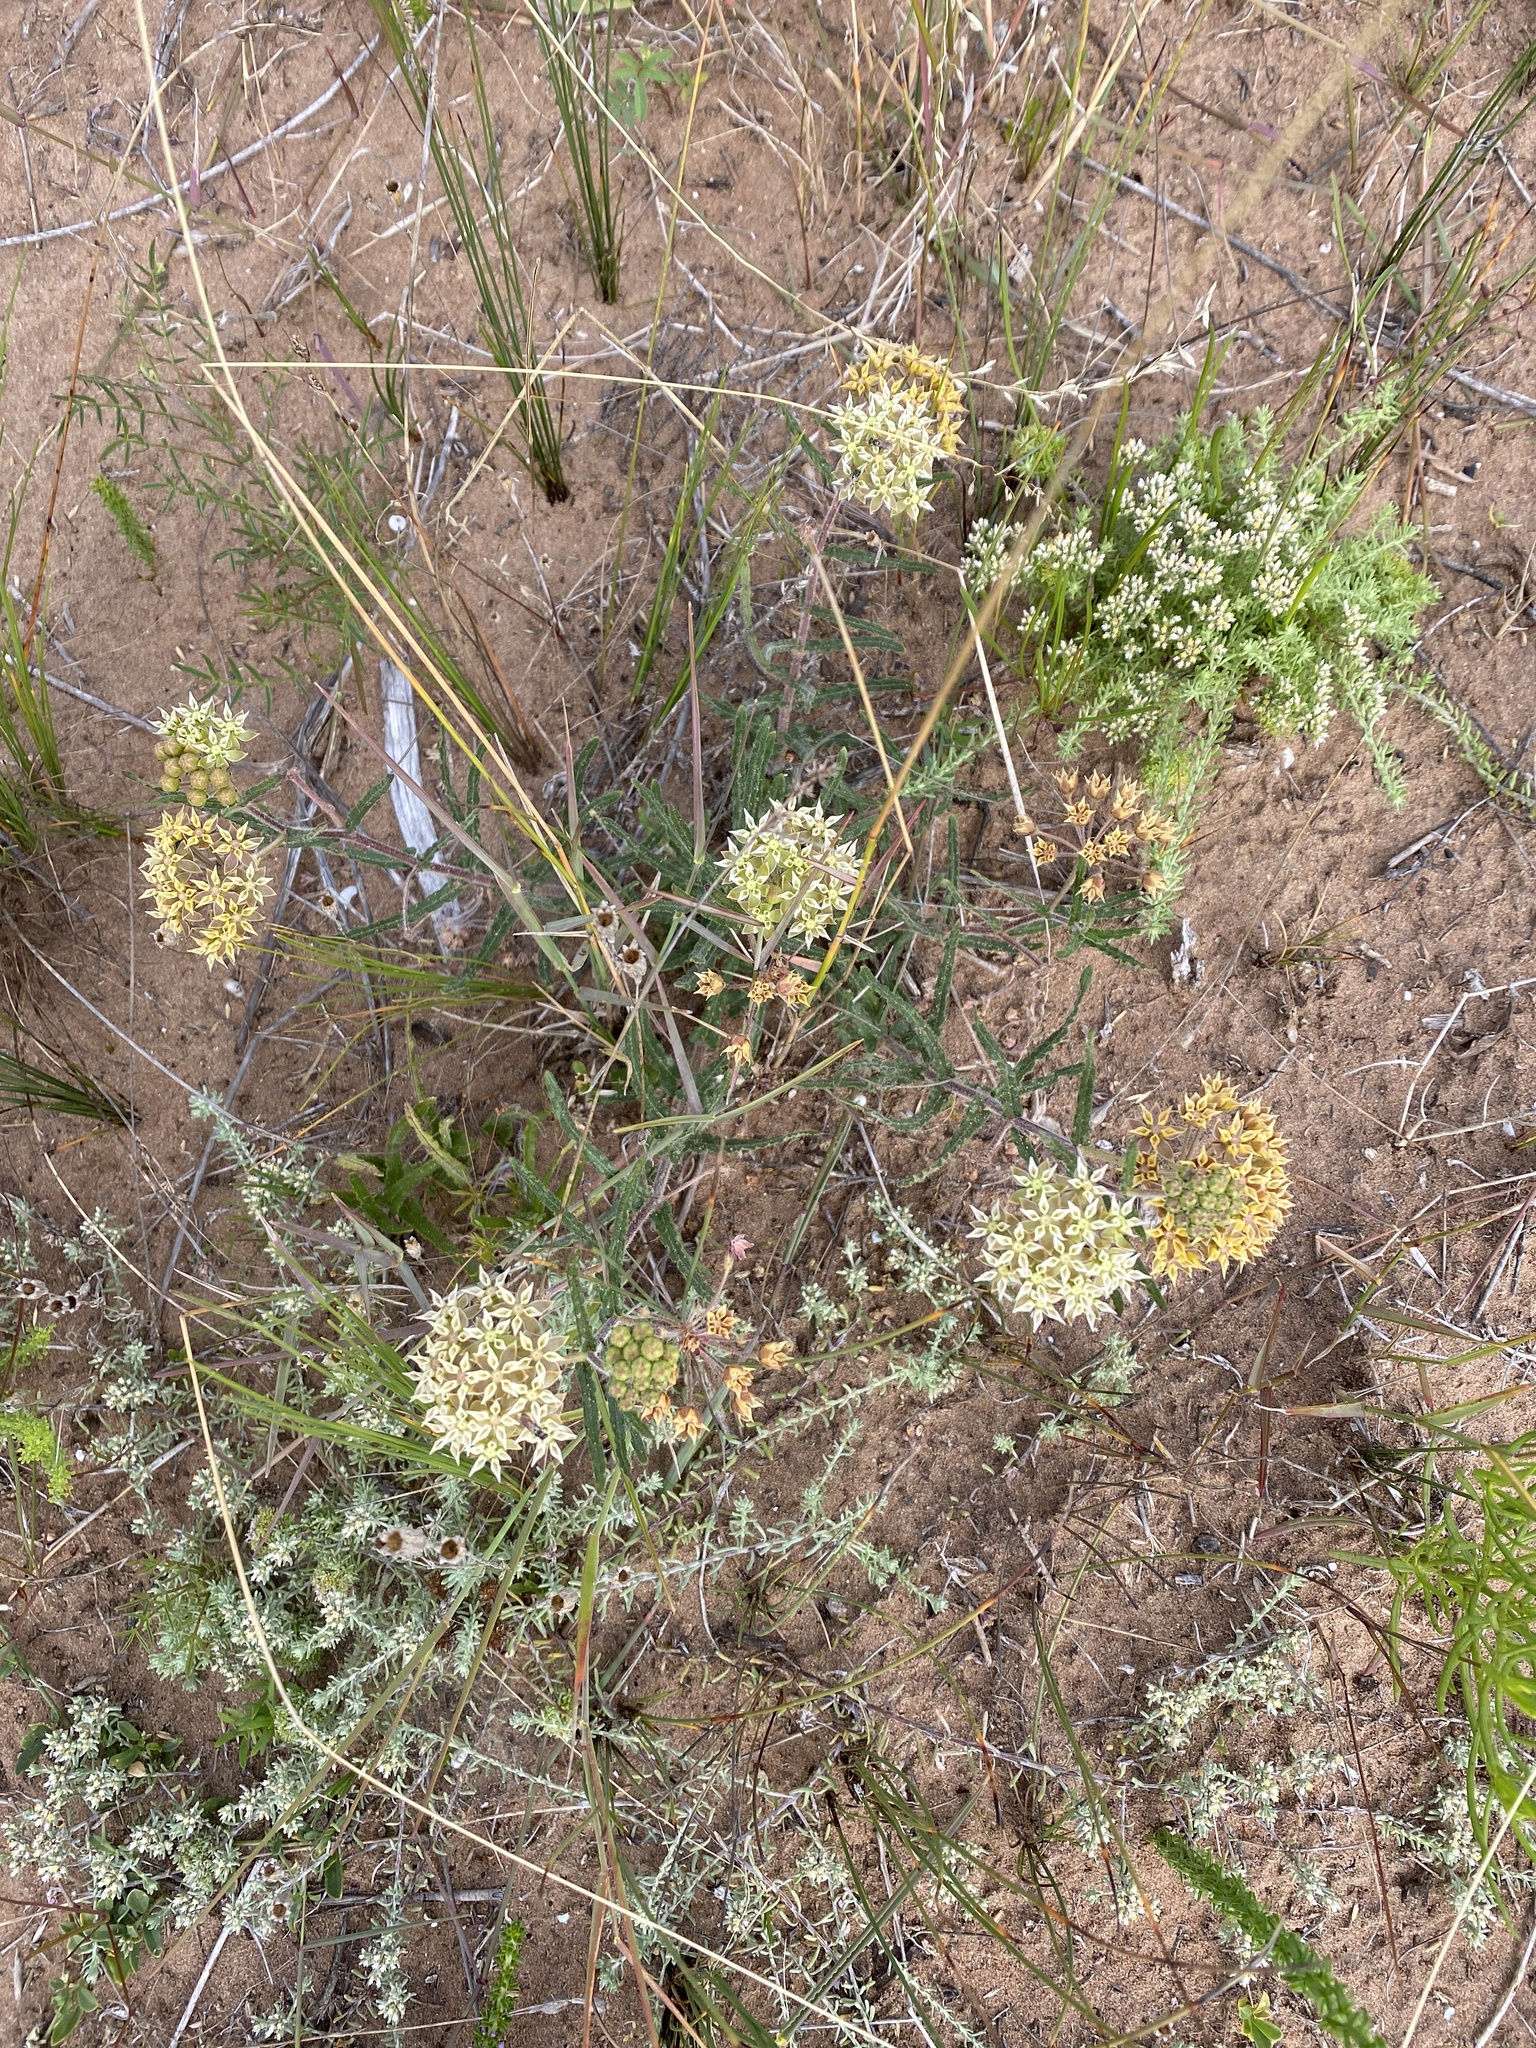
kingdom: Plantae
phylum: Tracheophyta
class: Magnoliopsida
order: Gentianales
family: Apocynaceae
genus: Asclepias
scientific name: Asclepias crispa
